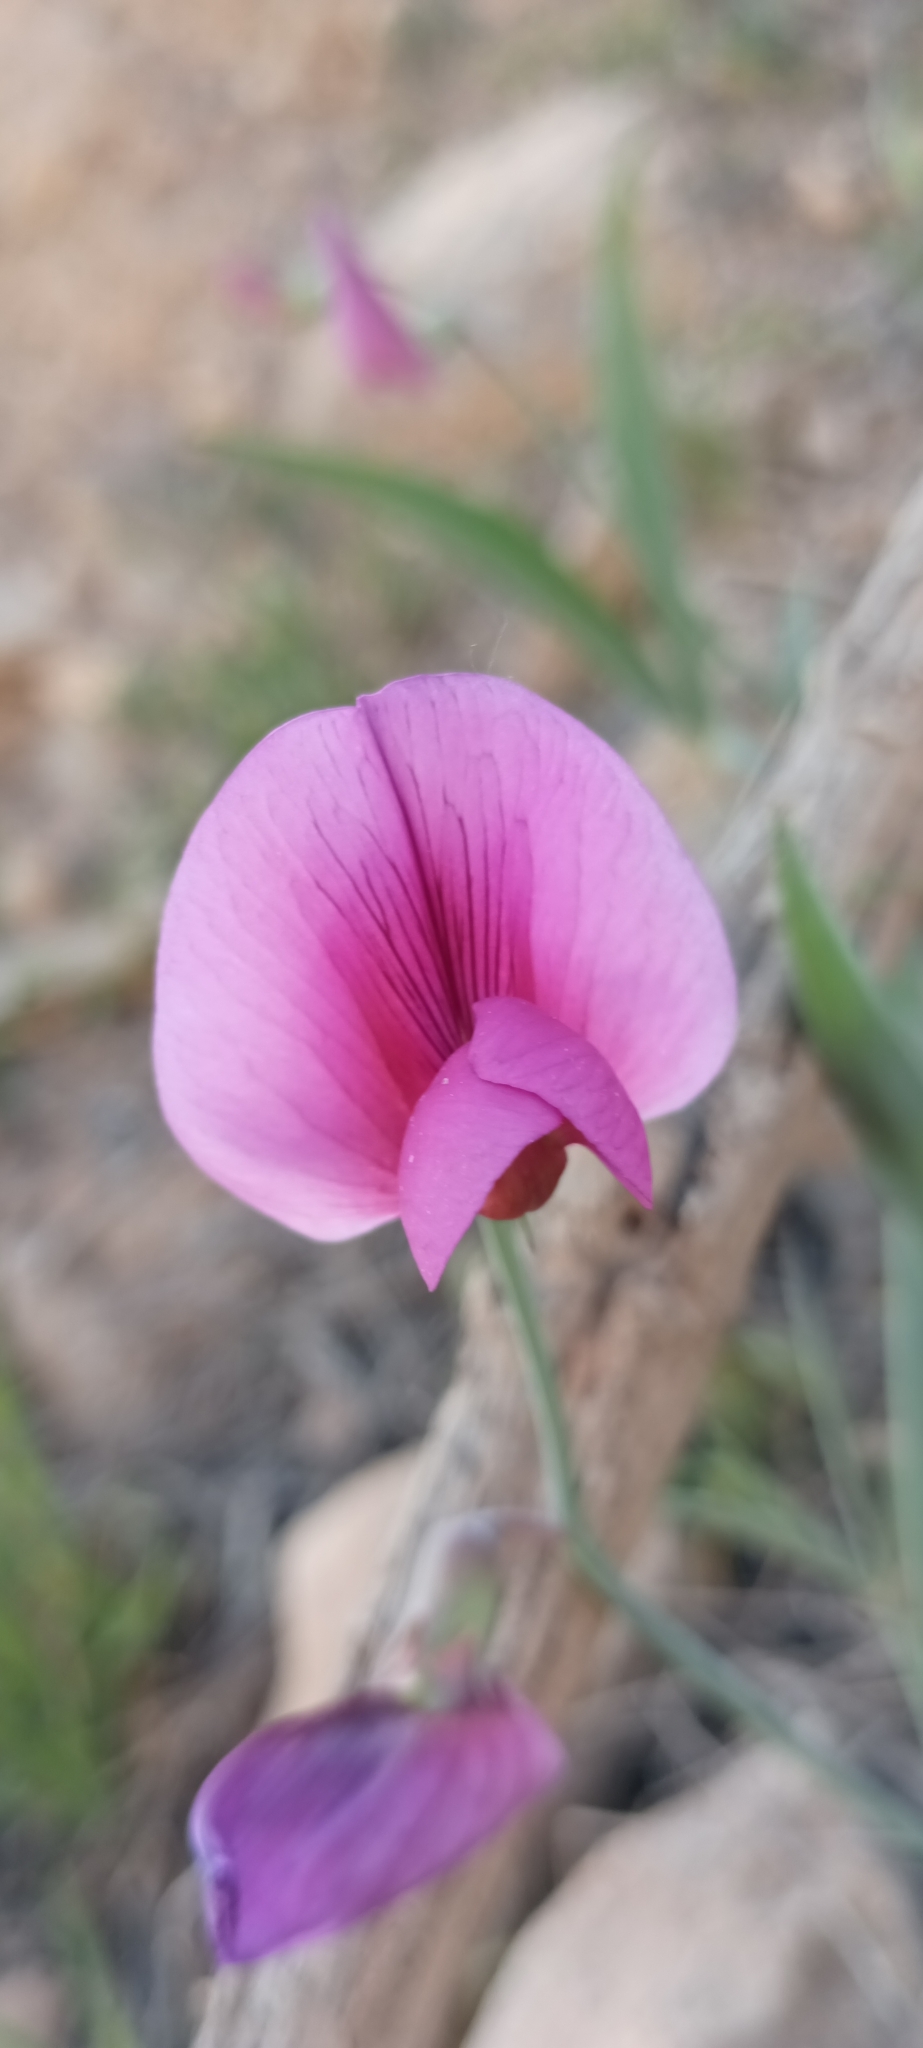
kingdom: Plantae
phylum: Tracheophyta
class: Magnoliopsida
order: Fabales
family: Fabaceae
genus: Lathyrus
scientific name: Lathyrus tingitanus
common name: Tangier pea
